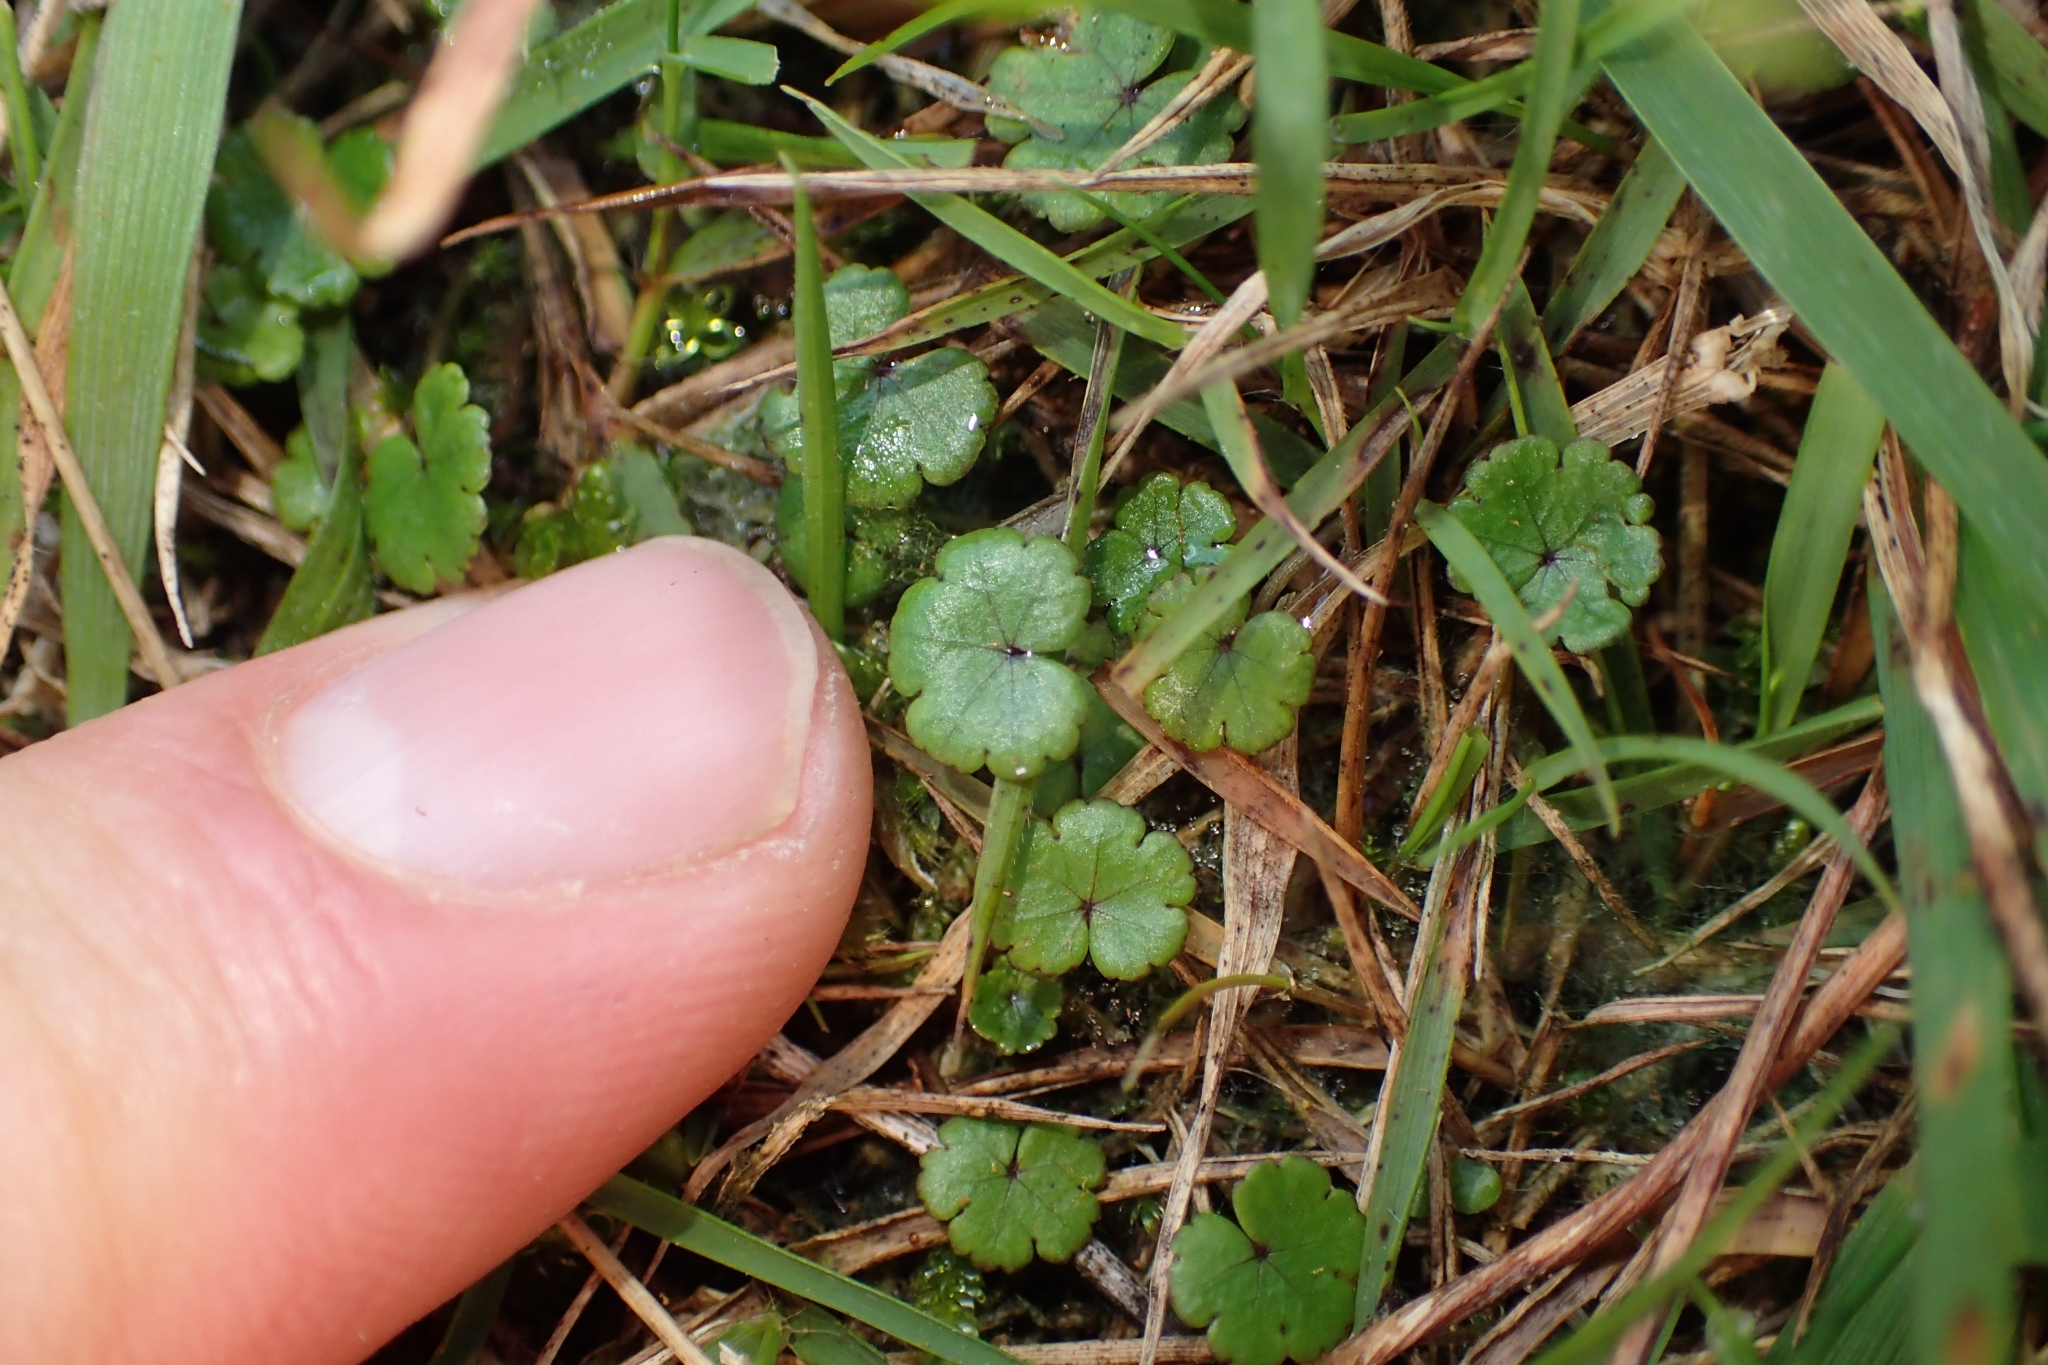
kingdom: Plantae
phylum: Tracheophyta
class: Magnoliopsida
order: Apiales
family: Araliaceae
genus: Hydrocotyle
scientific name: Hydrocotyle microphylla
